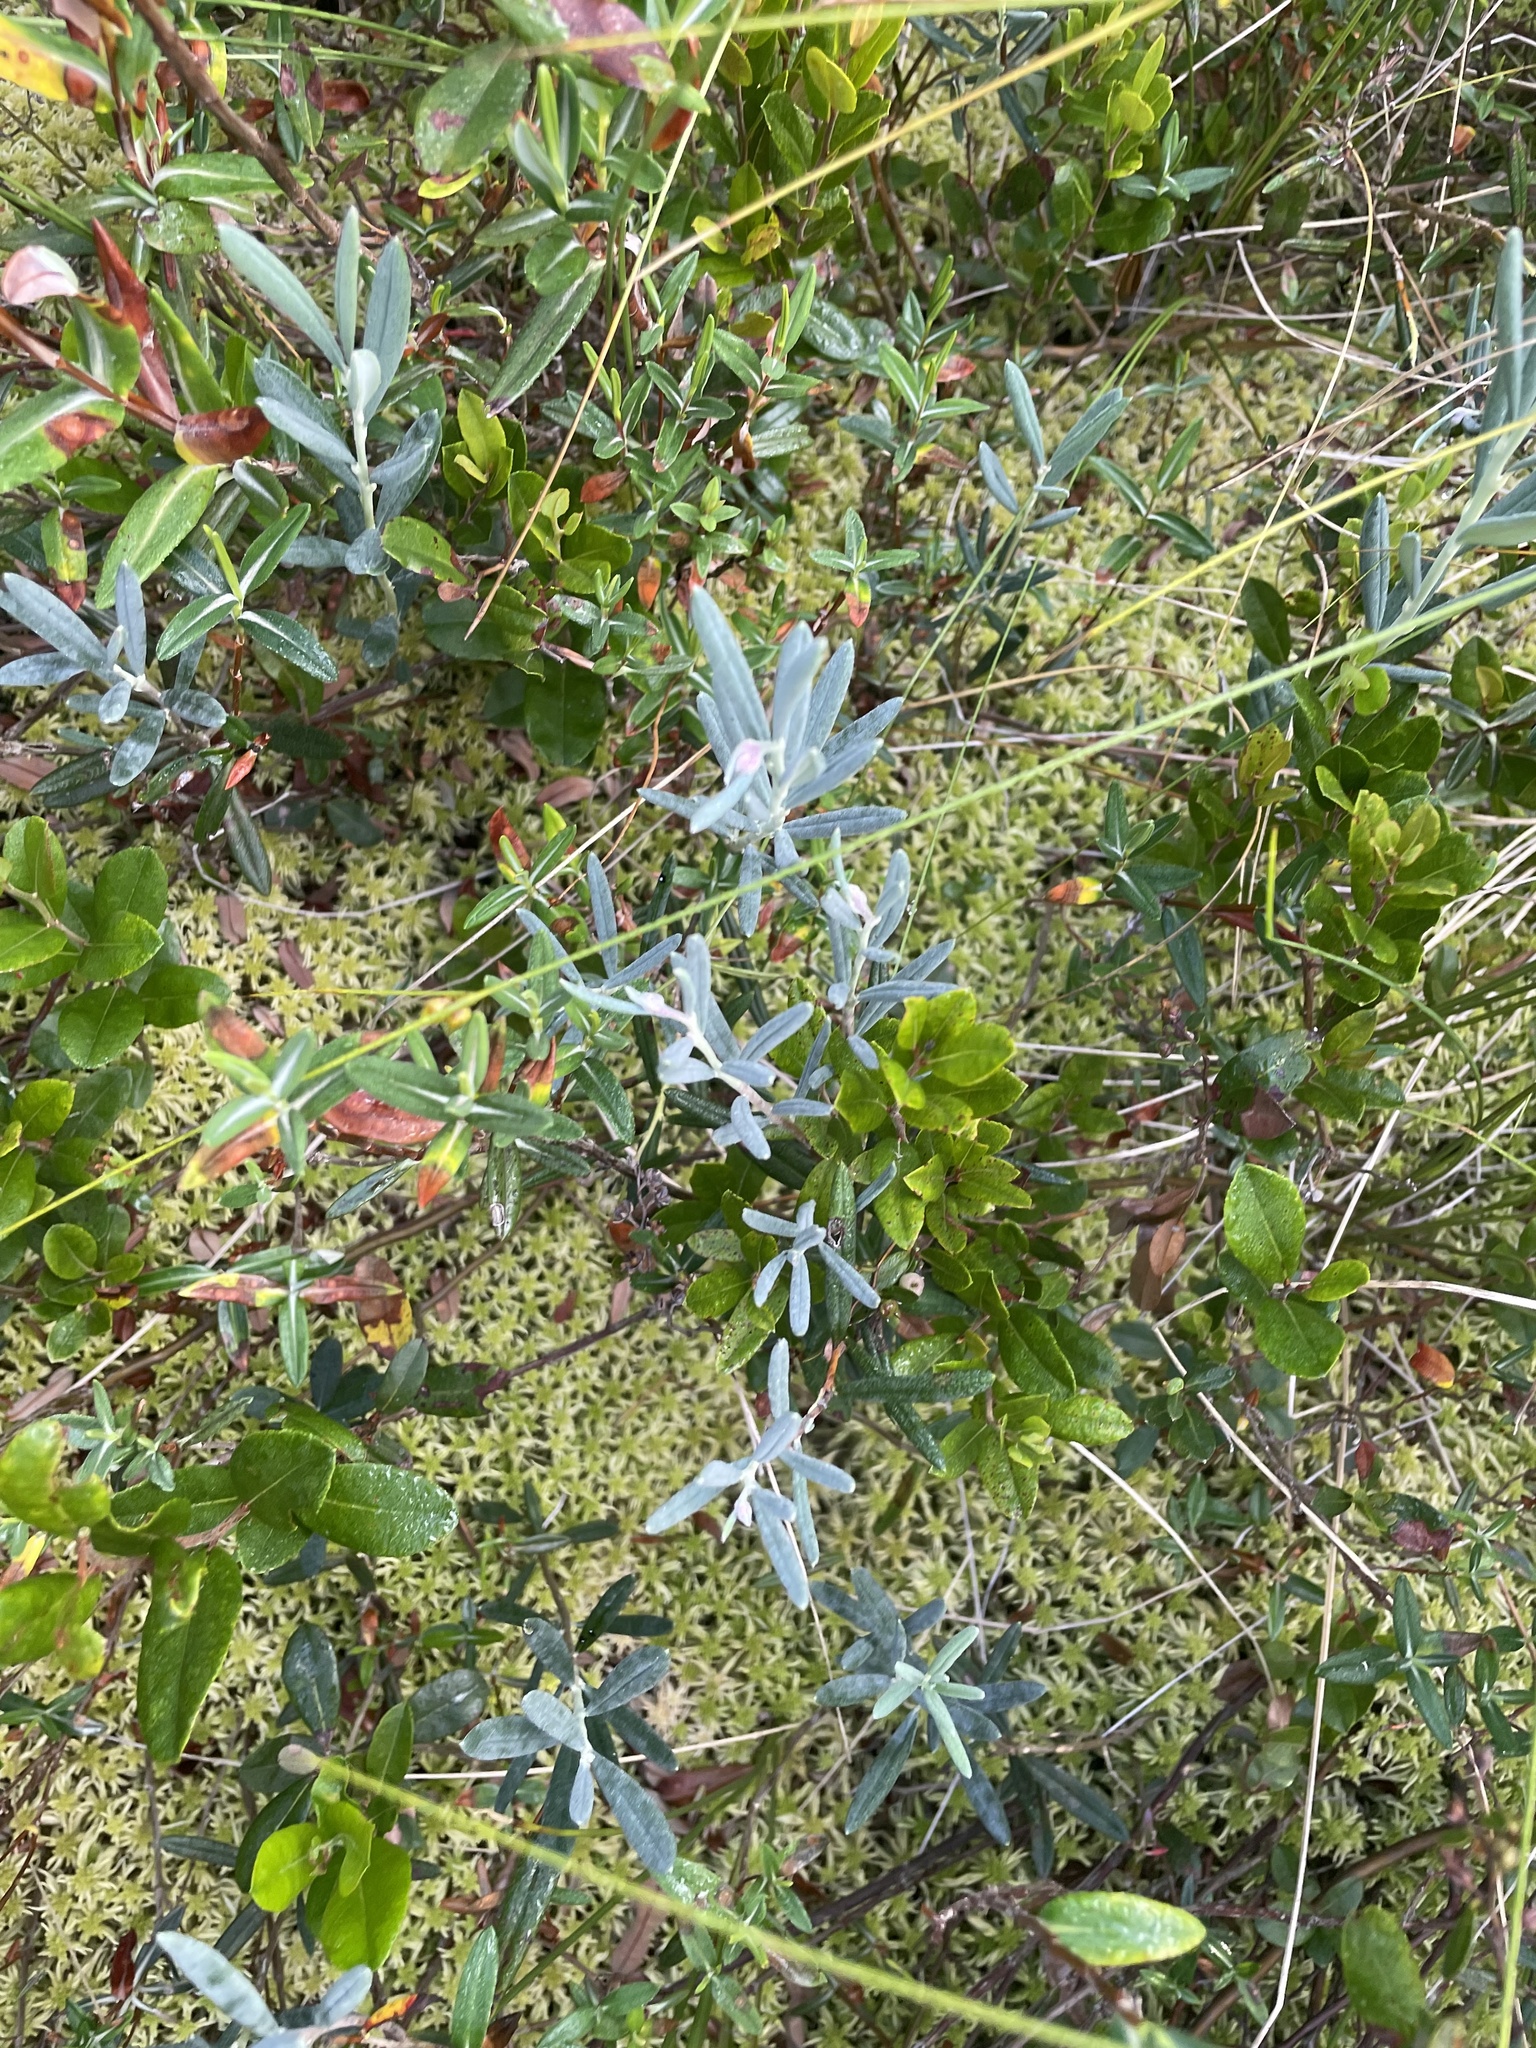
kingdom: Plantae
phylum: Tracheophyta
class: Magnoliopsida
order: Ericales
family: Ericaceae
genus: Andromeda
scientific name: Andromeda polifolia
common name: Bog-rosemary
